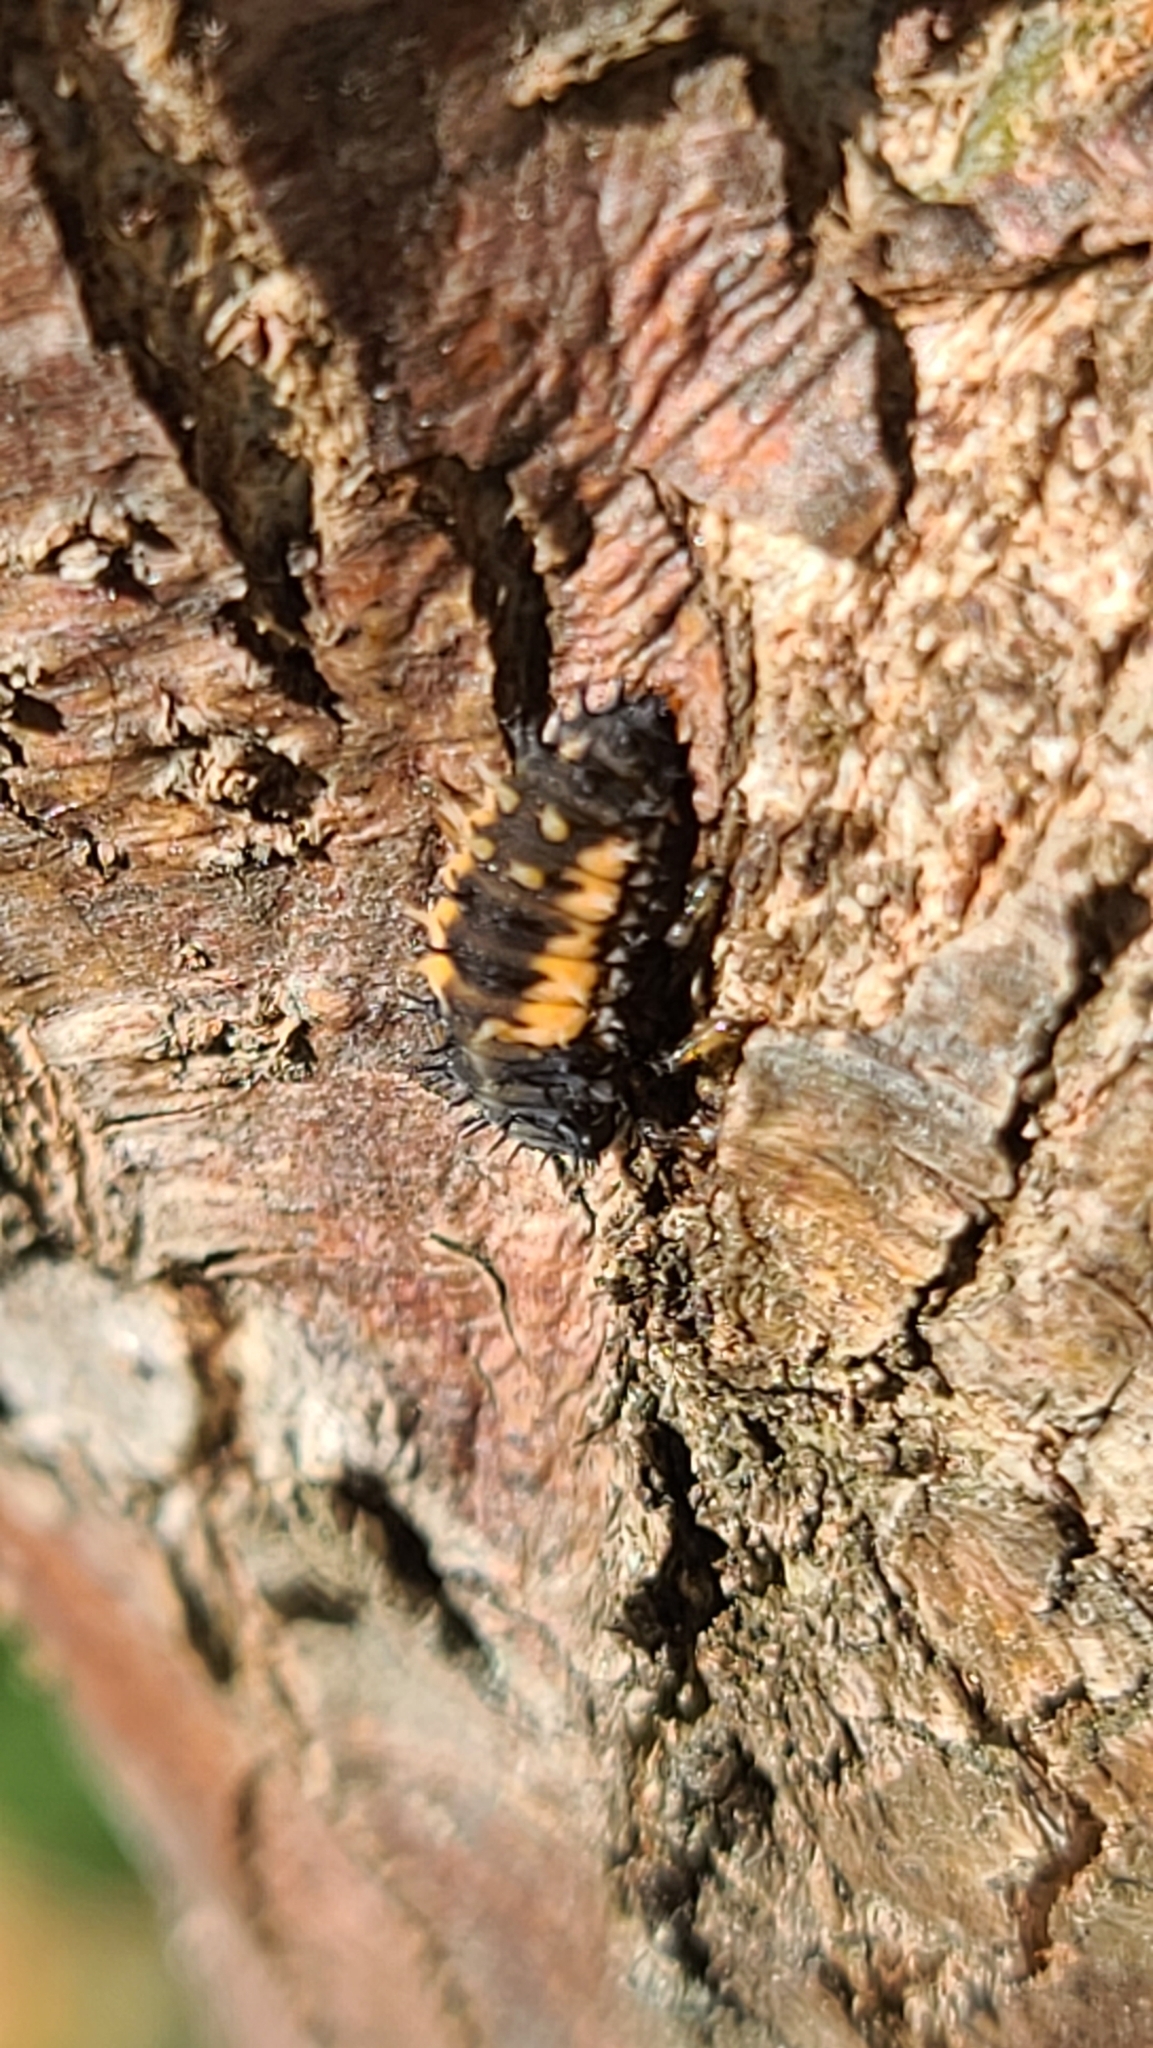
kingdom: Animalia
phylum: Arthropoda
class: Insecta
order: Coleoptera
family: Coccinellidae
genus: Harmonia
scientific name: Harmonia axyridis
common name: Harlequin ladybird
